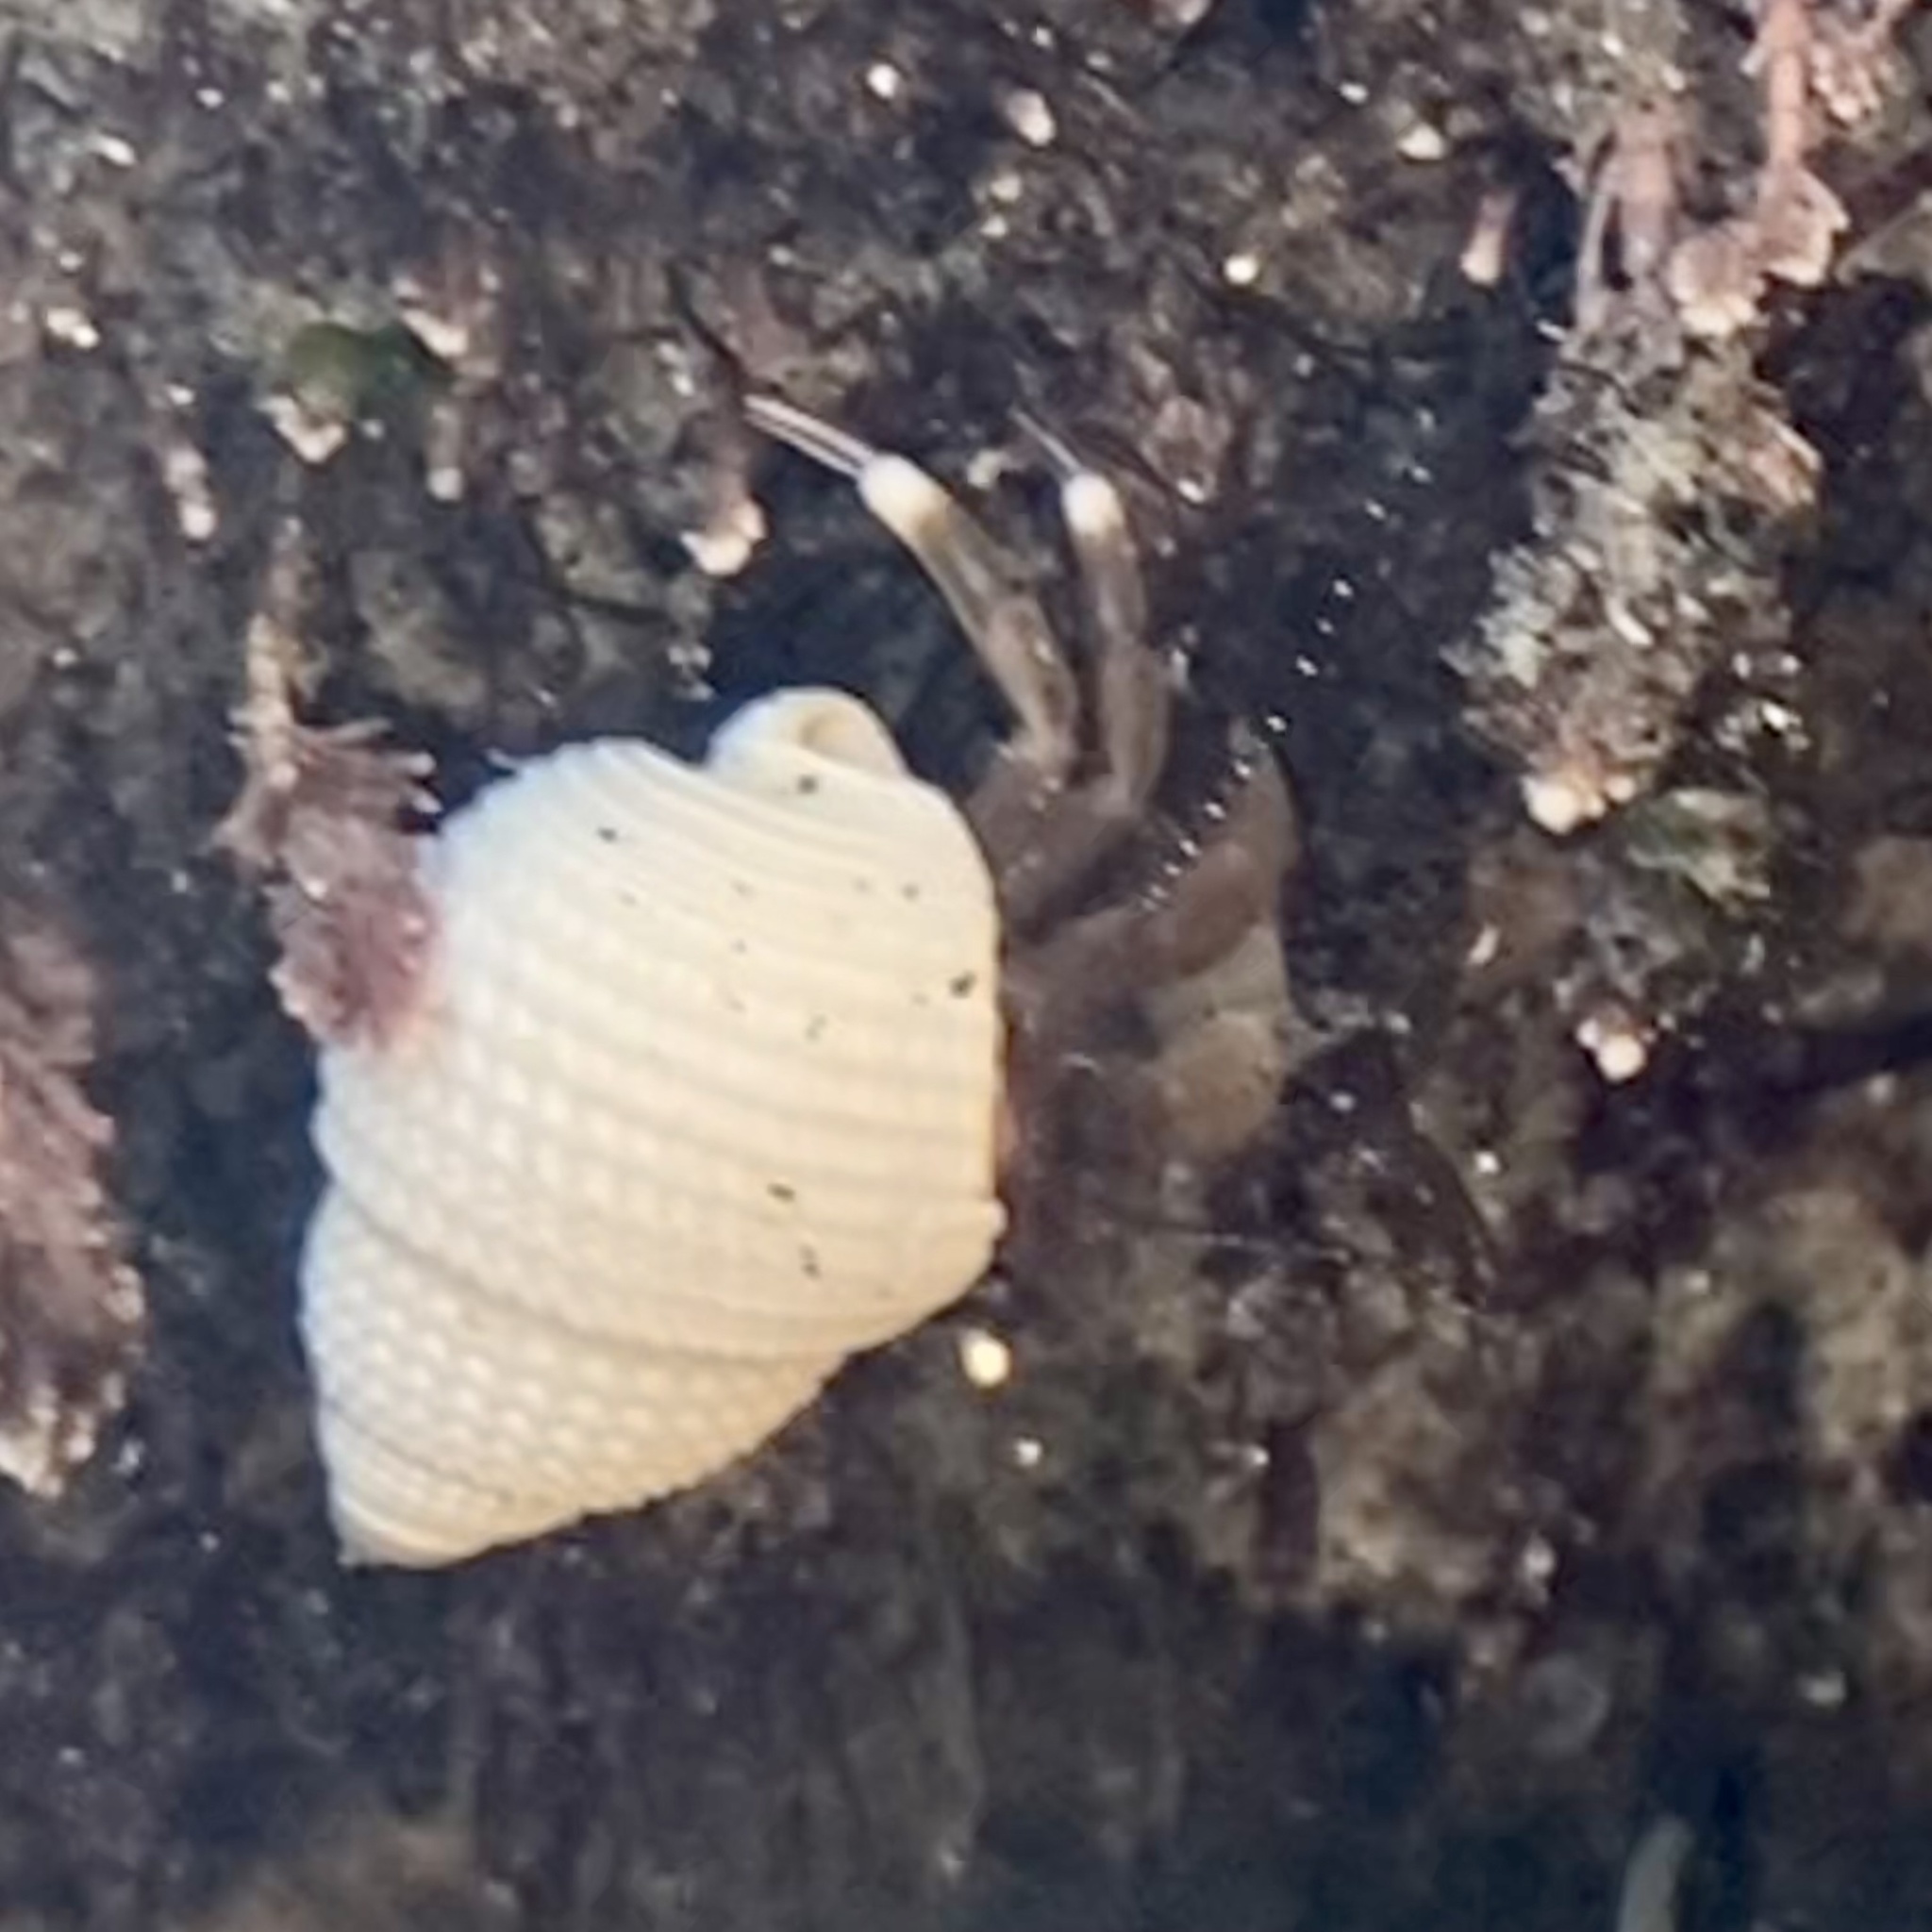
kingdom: Animalia
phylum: Arthropoda
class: Malacostraca
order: Decapoda
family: Paguridae
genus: Pagurus
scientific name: Pagurus venturensis
